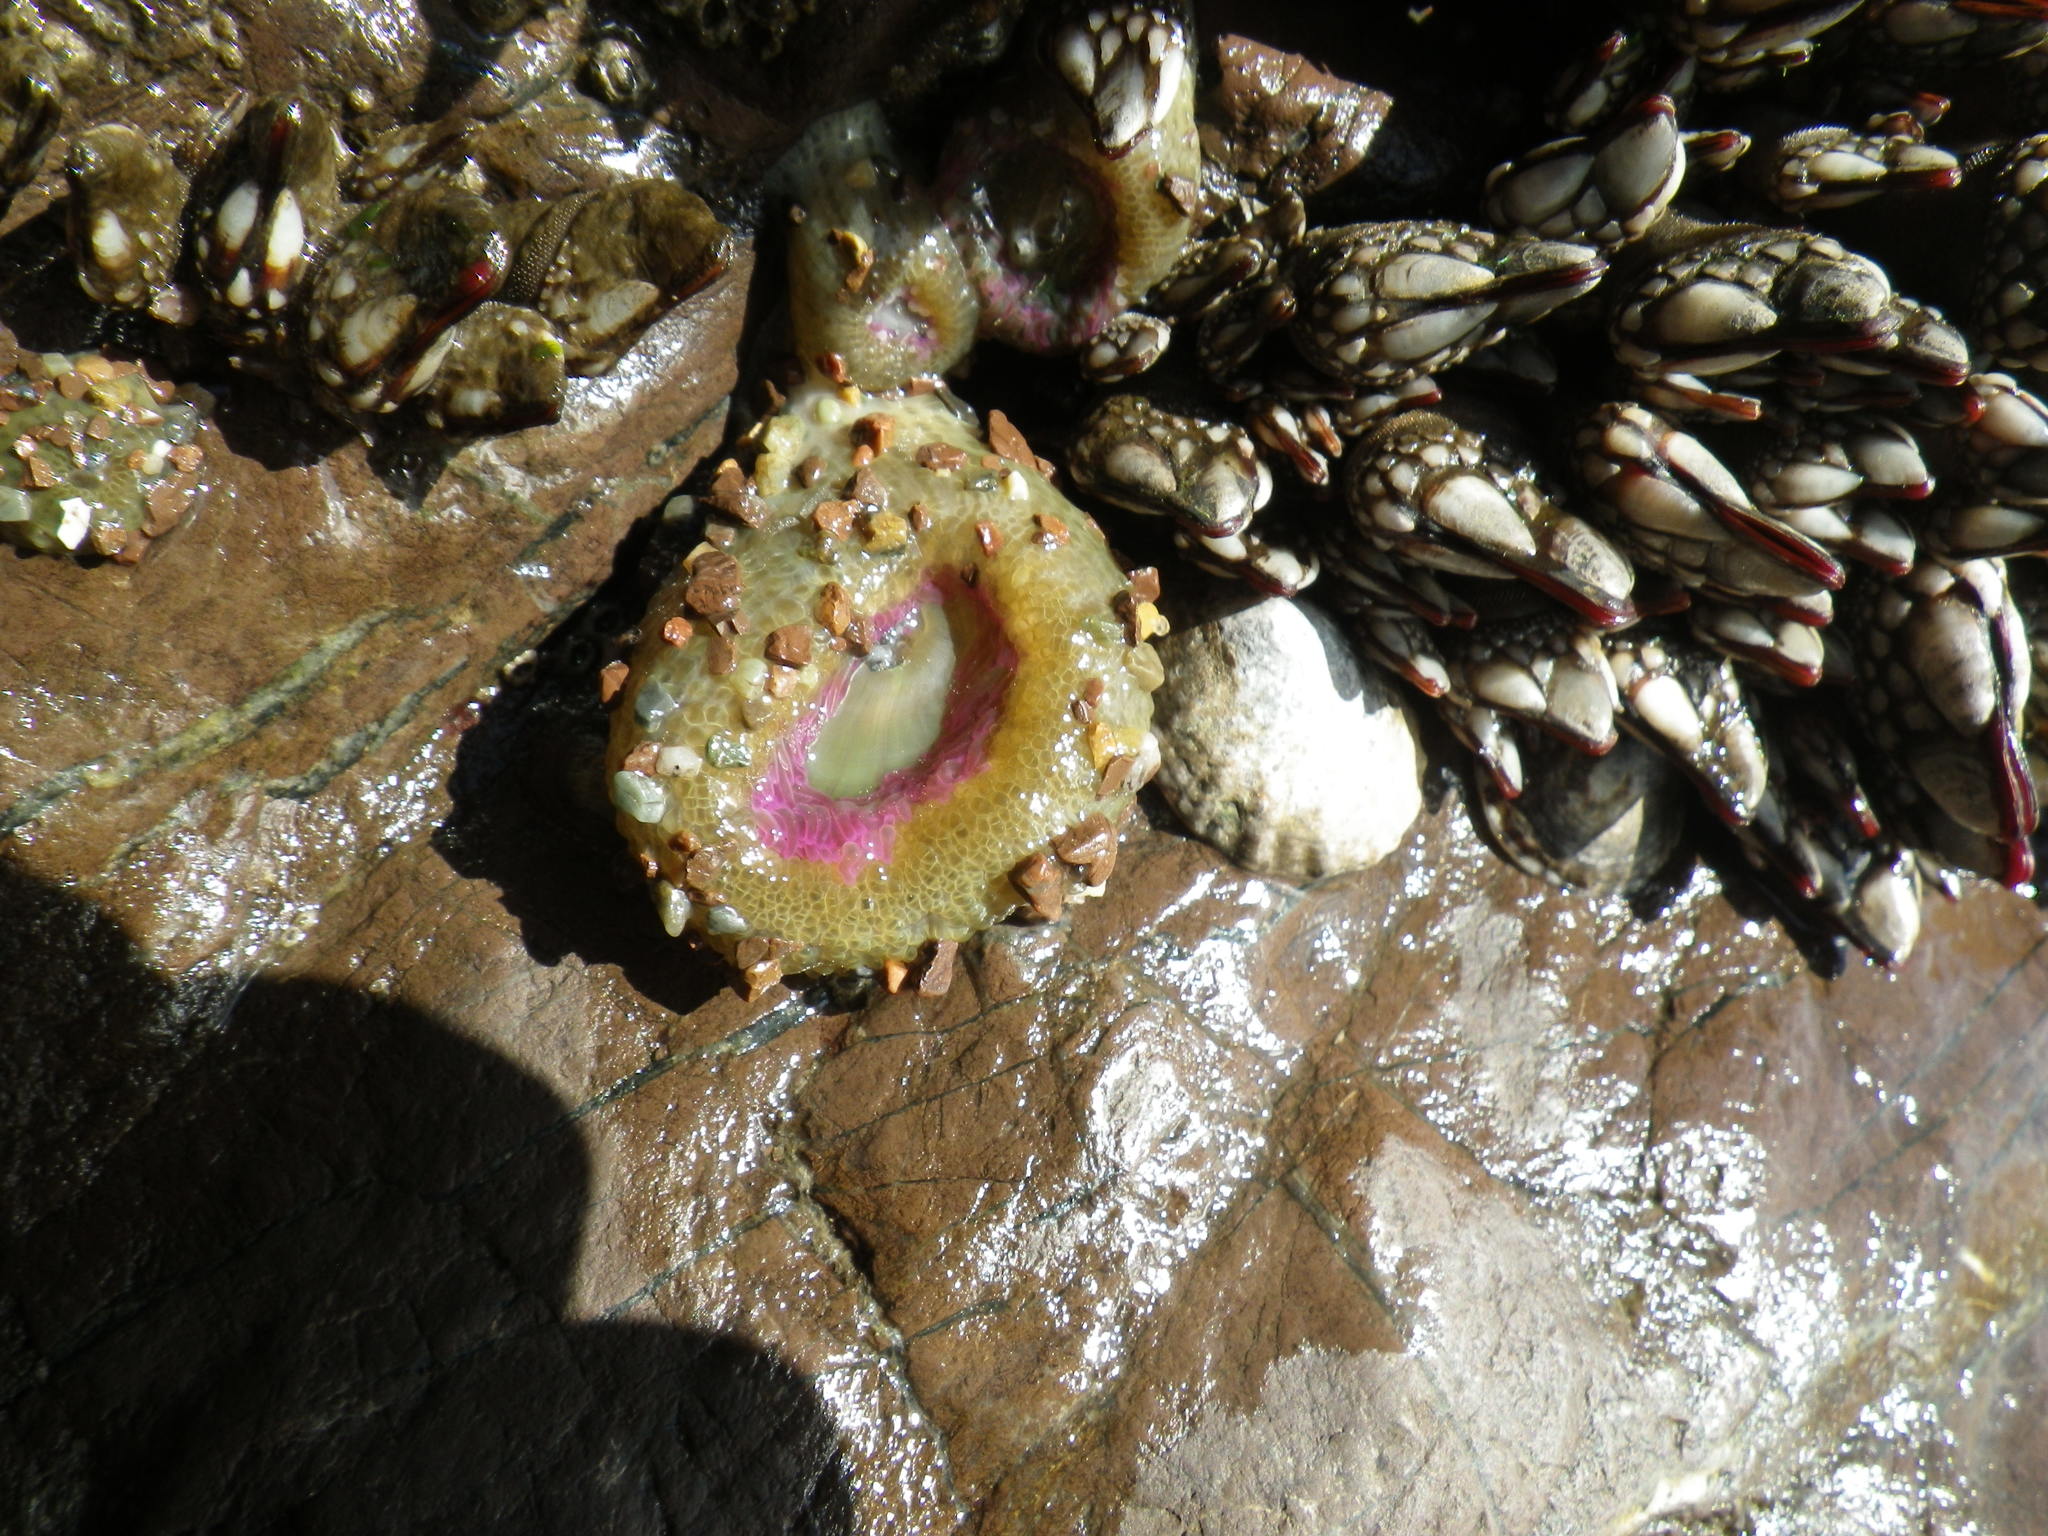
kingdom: Animalia
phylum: Cnidaria
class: Anthozoa
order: Actiniaria
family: Actiniidae
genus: Anthopleura
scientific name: Anthopleura elegantissima
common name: Clonal anemone
